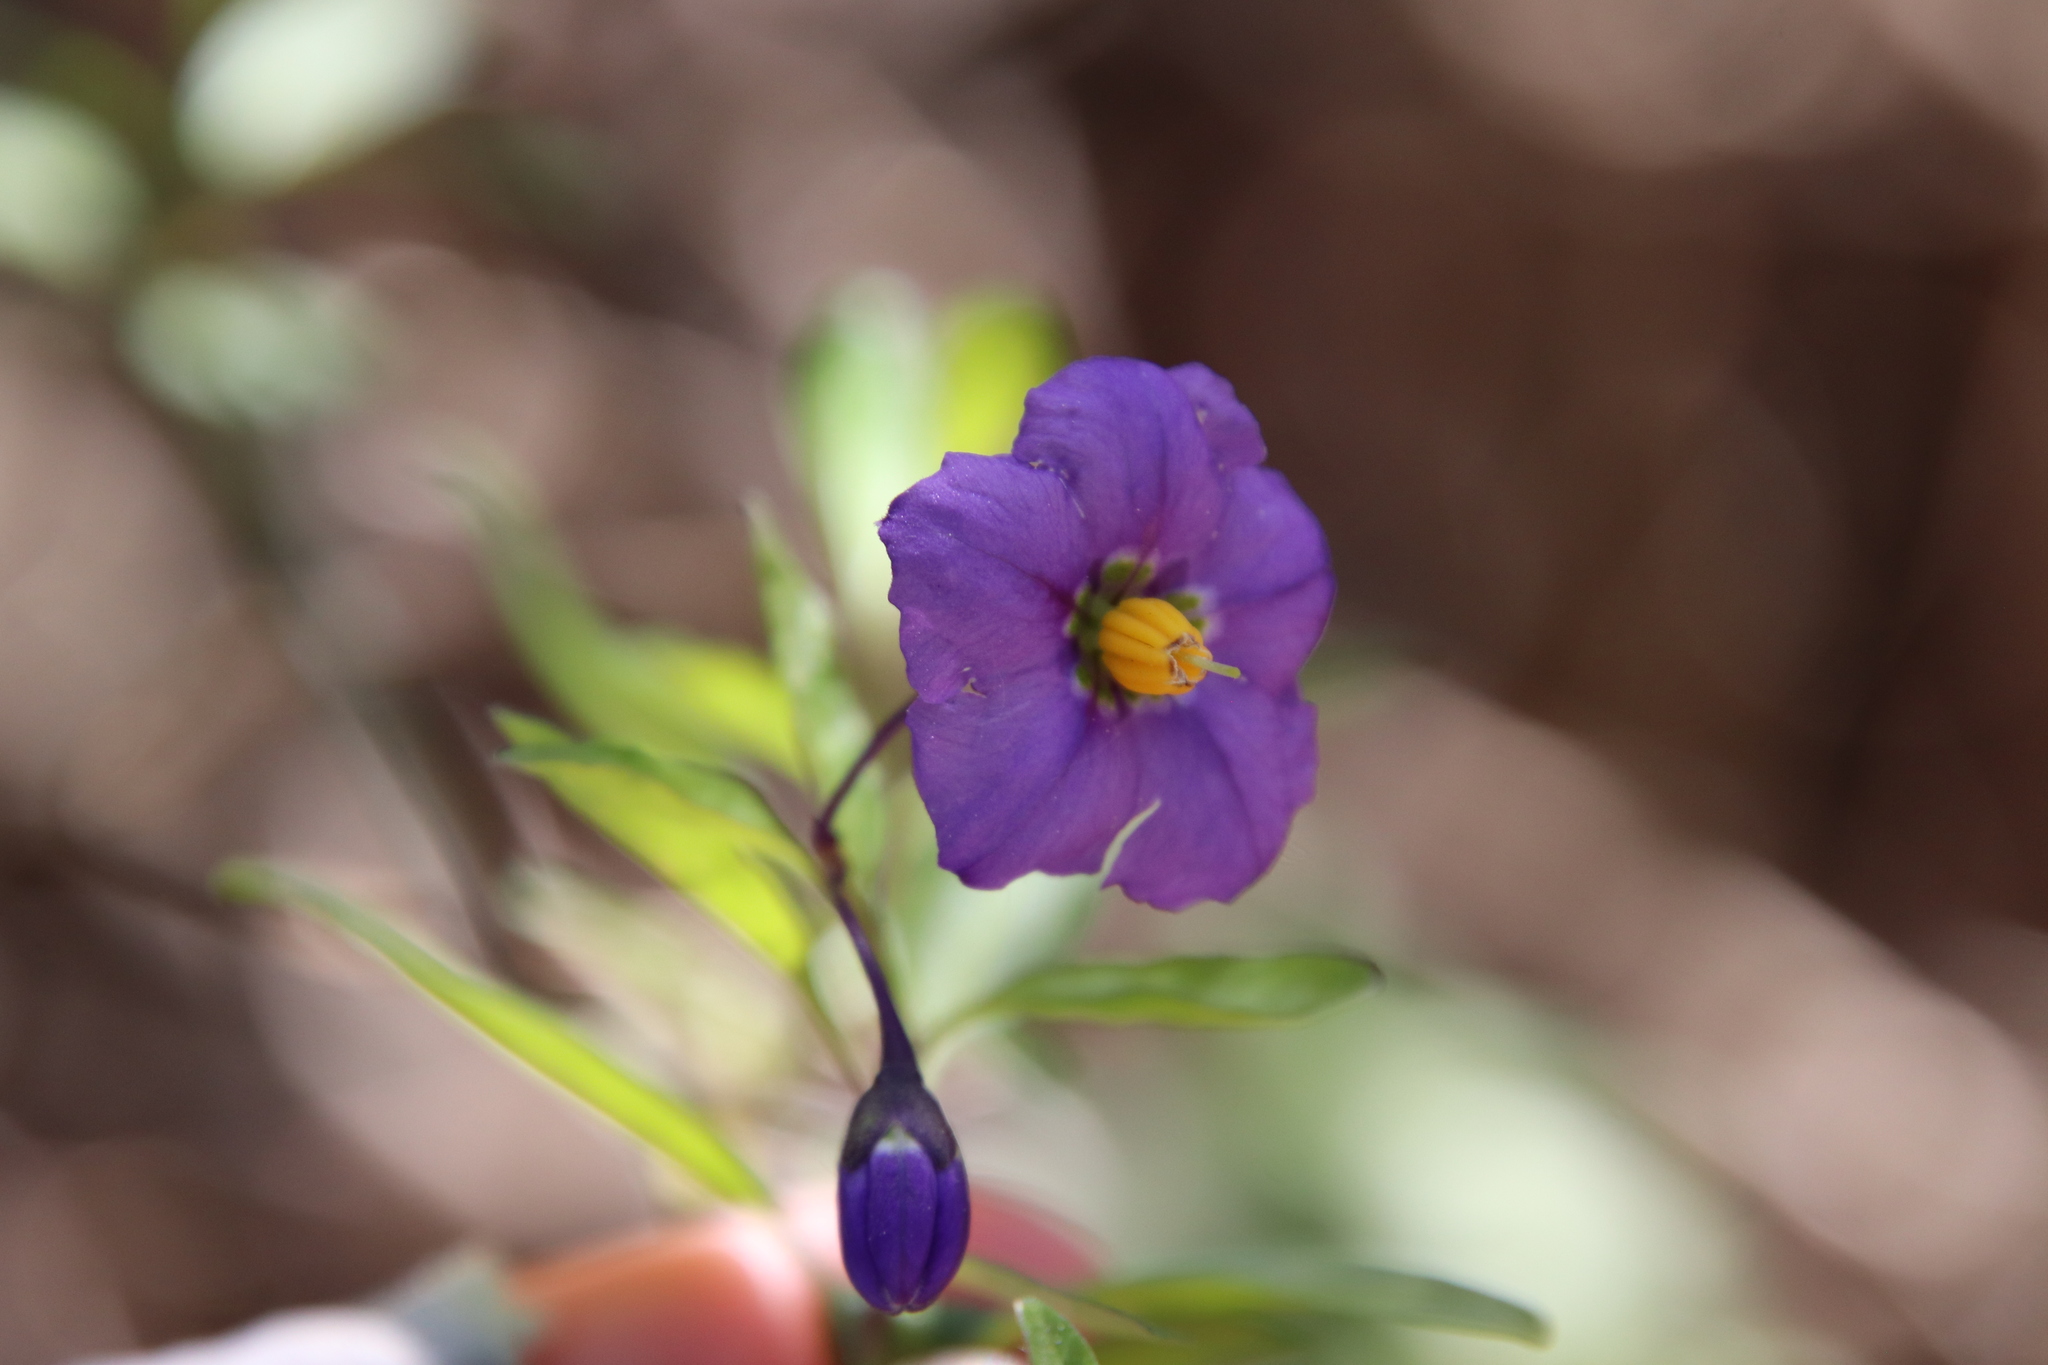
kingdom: Plantae
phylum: Tracheophyta
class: Magnoliopsida
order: Solanales
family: Solanaceae
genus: Solanum
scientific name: Solanum umbelliferum
